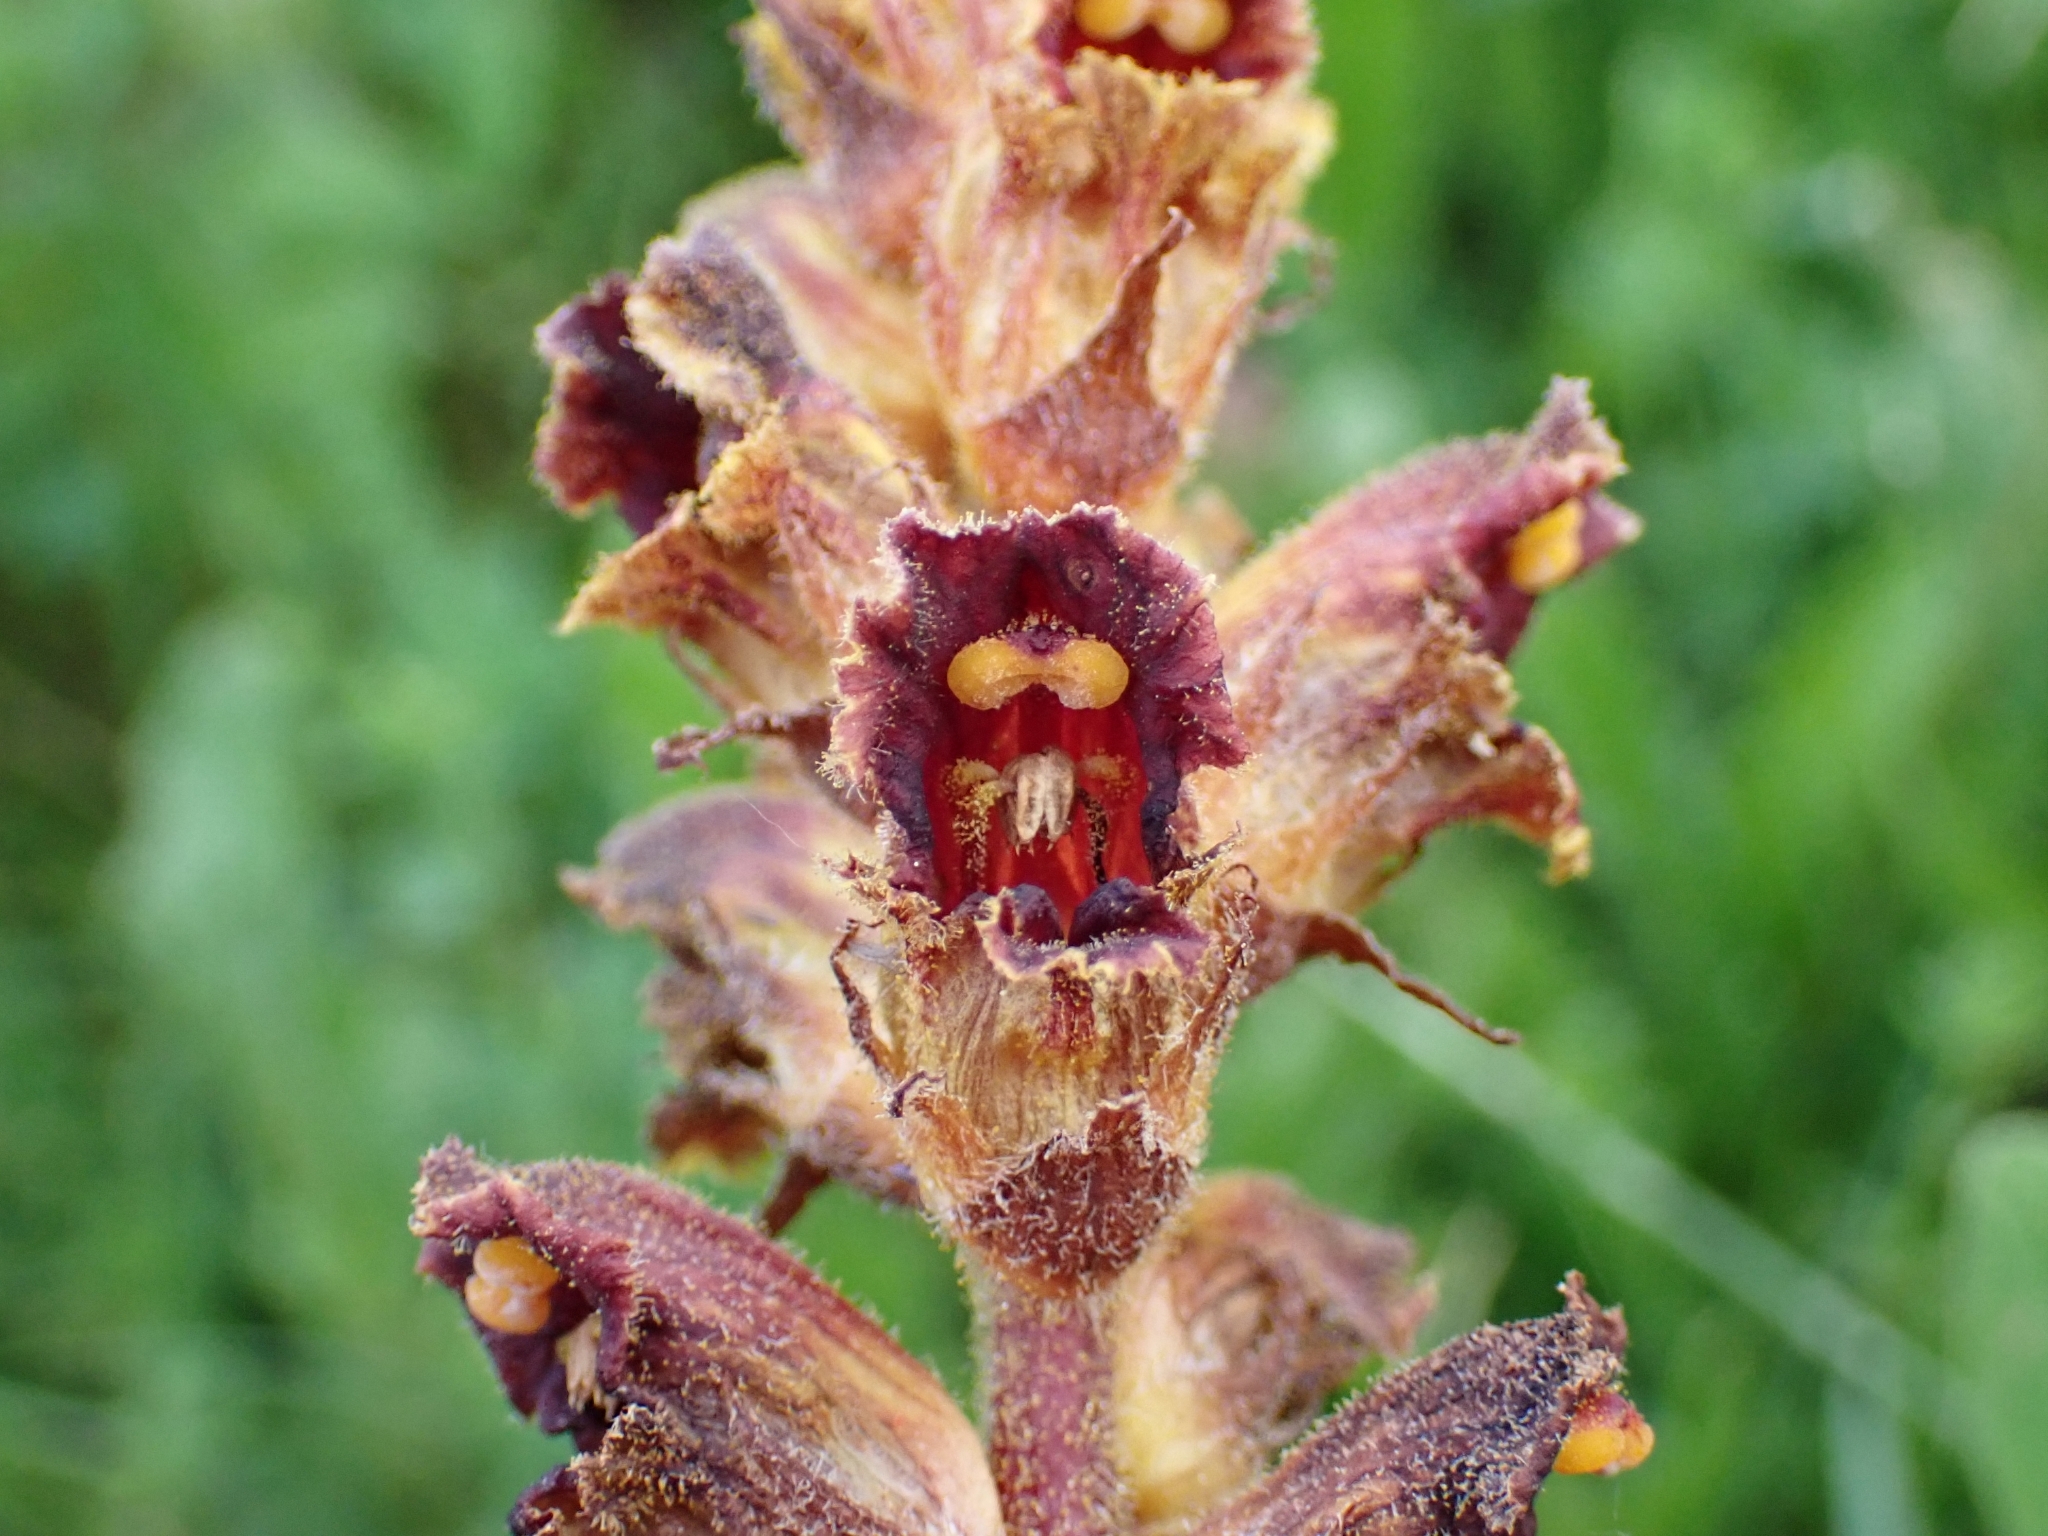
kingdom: Plantae
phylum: Tracheophyta
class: Magnoliopsida
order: Lamiales
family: Orobanchaceae
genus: Orobanche
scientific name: Orobanche gracilis
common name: Slender broomrape
